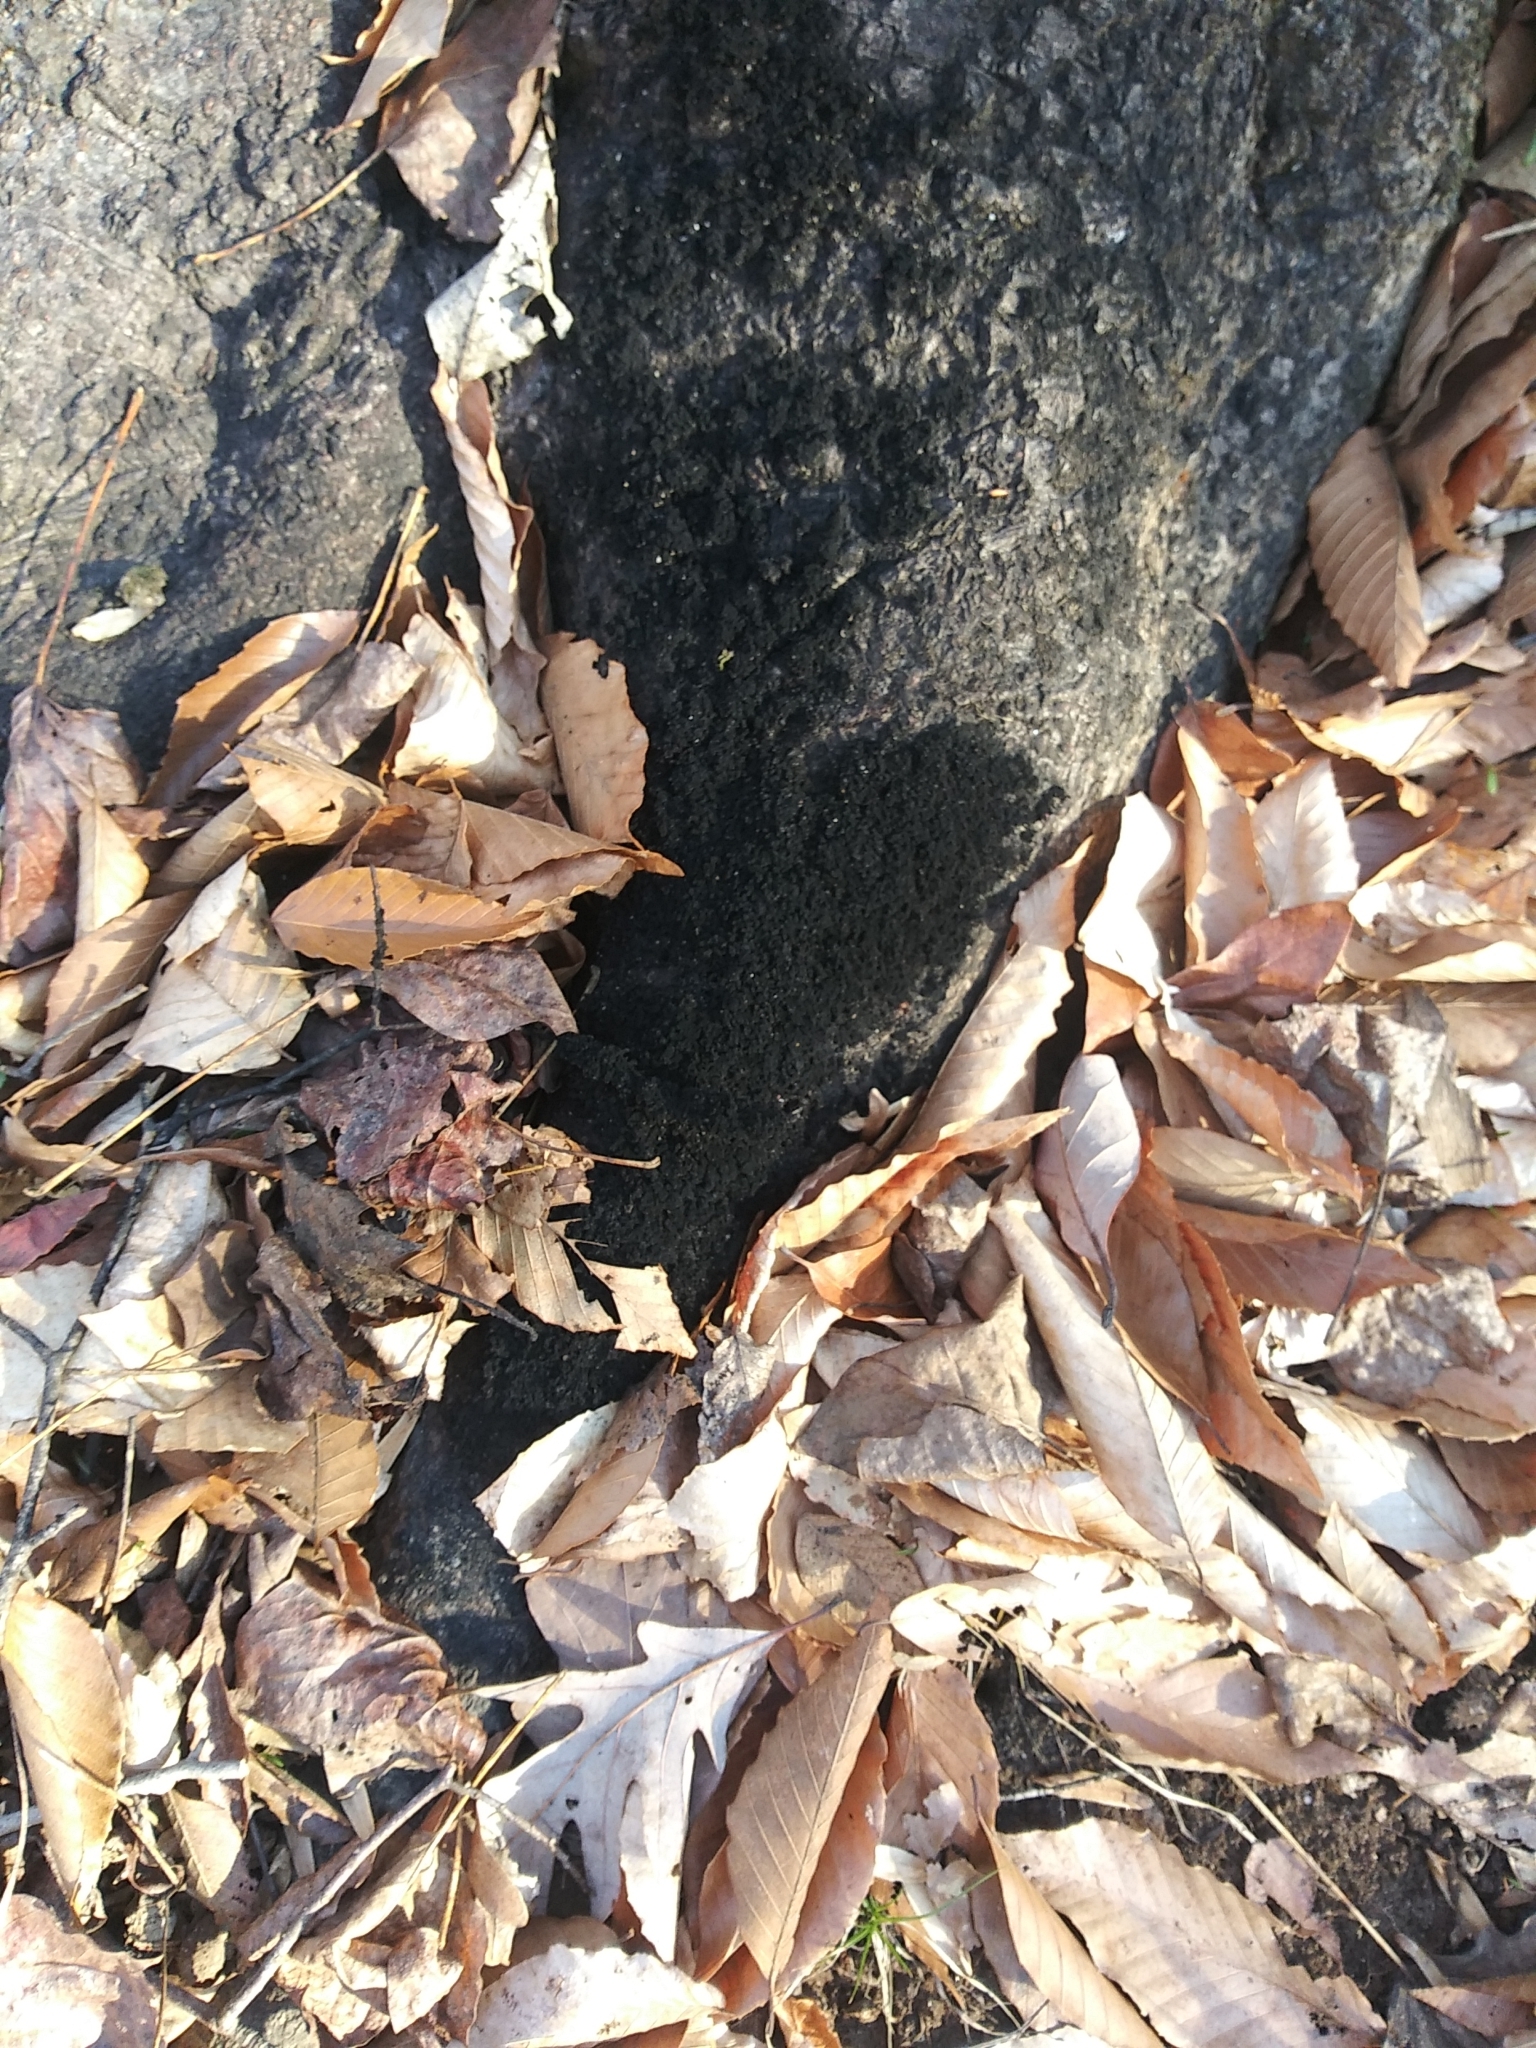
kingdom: Fungi
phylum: Ascomycota
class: Dothideomycetes
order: Capnodiales
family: Capnodiaceae
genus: Scorias
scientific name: Scorias spongiosa
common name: Black sooty mold
